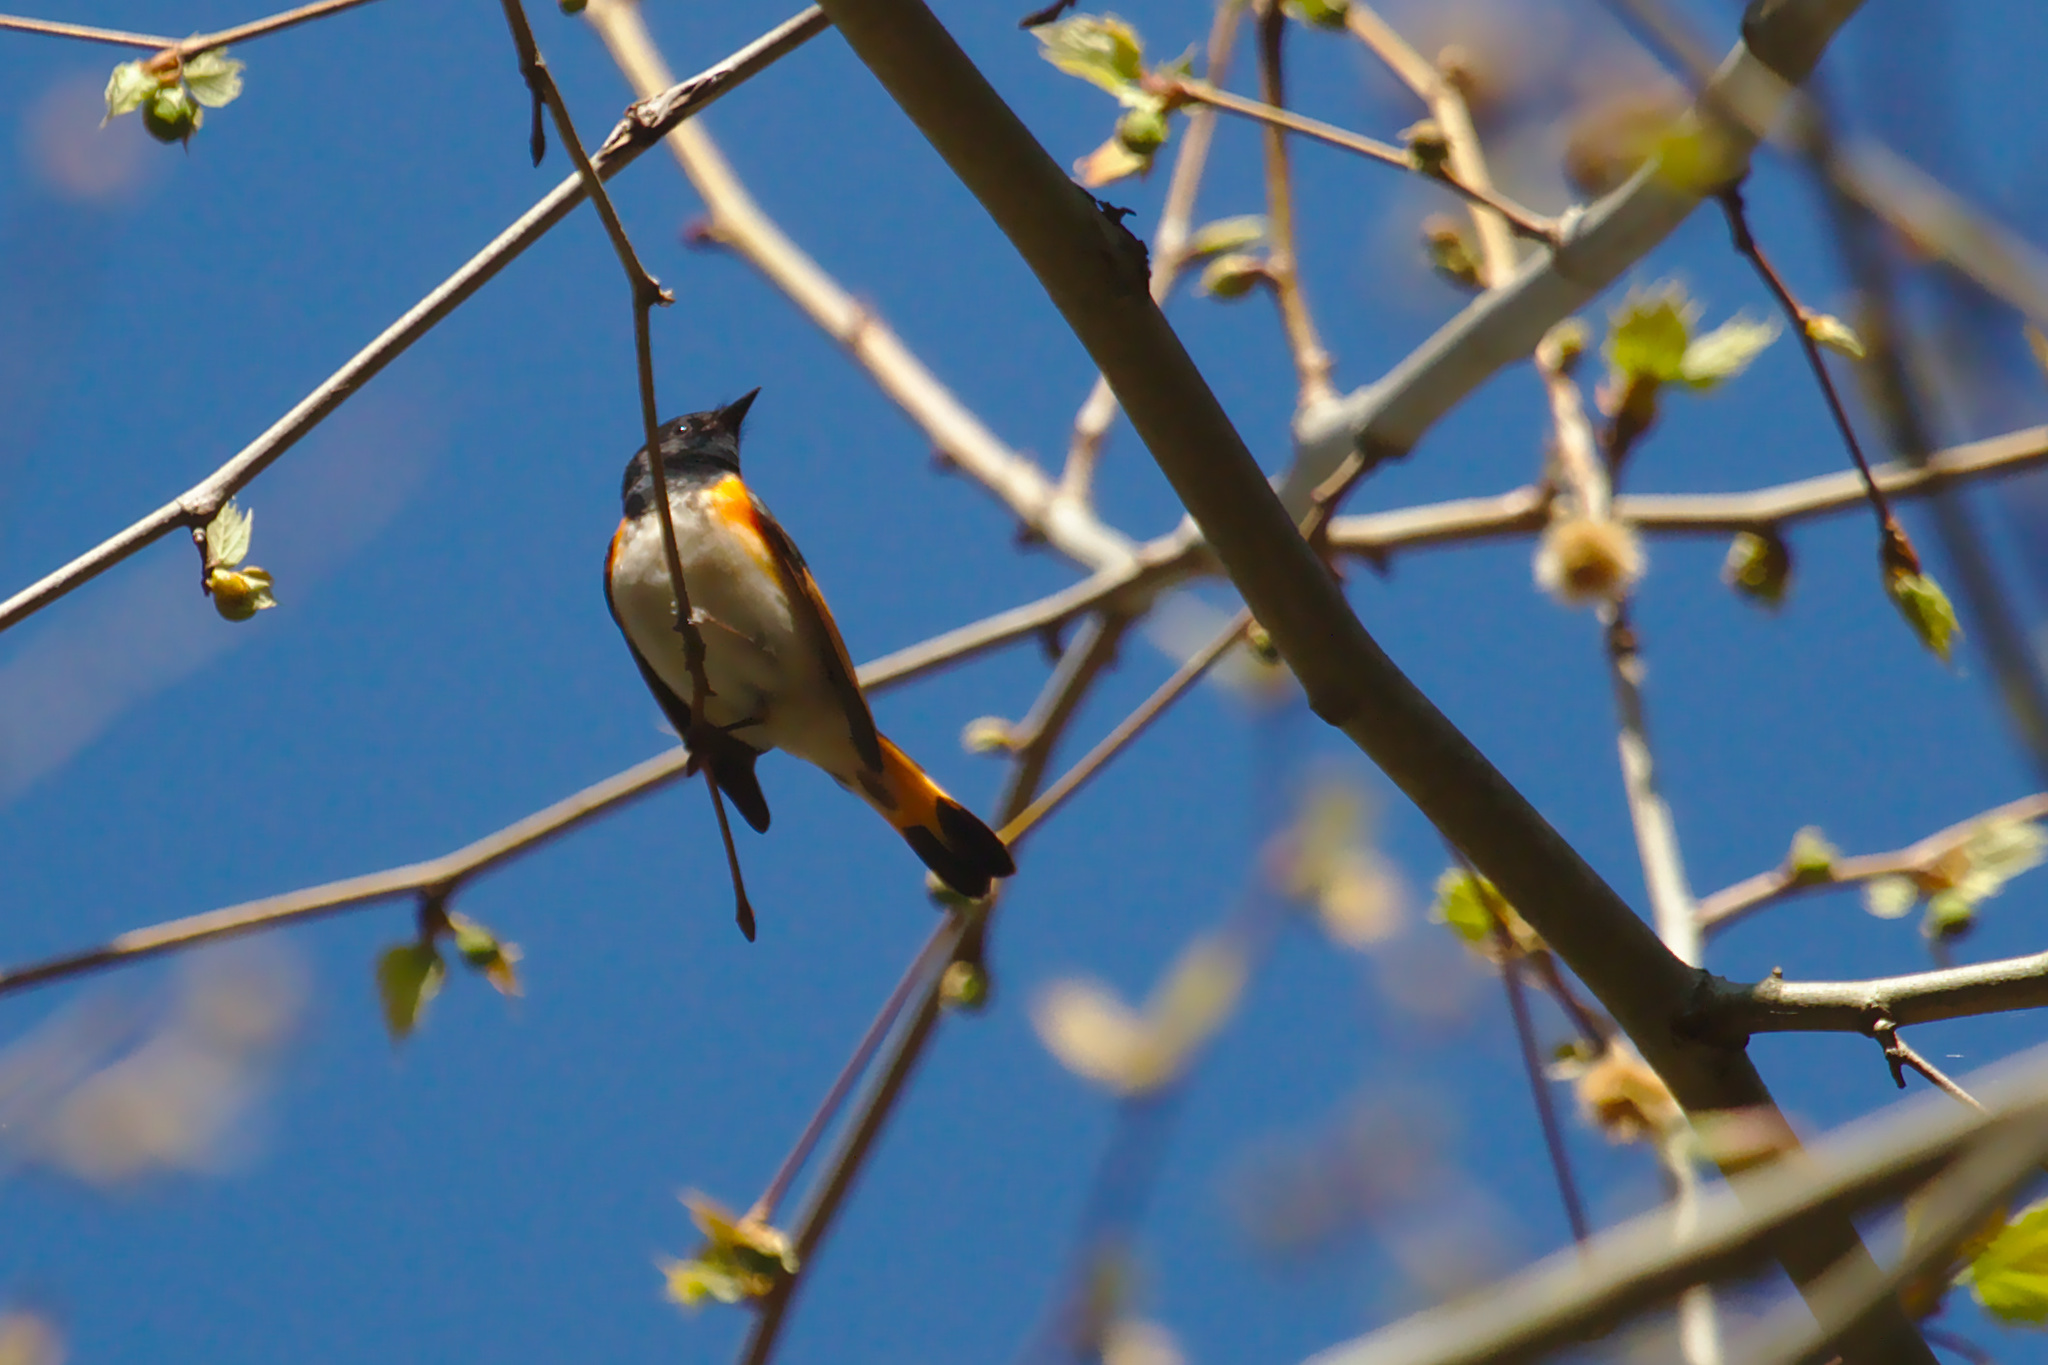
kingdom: Animalia
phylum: Chordata
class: Aves
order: Passeriformes
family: Parulidae
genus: Setophaga
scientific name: Setophaga ruticilla
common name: American redstart
